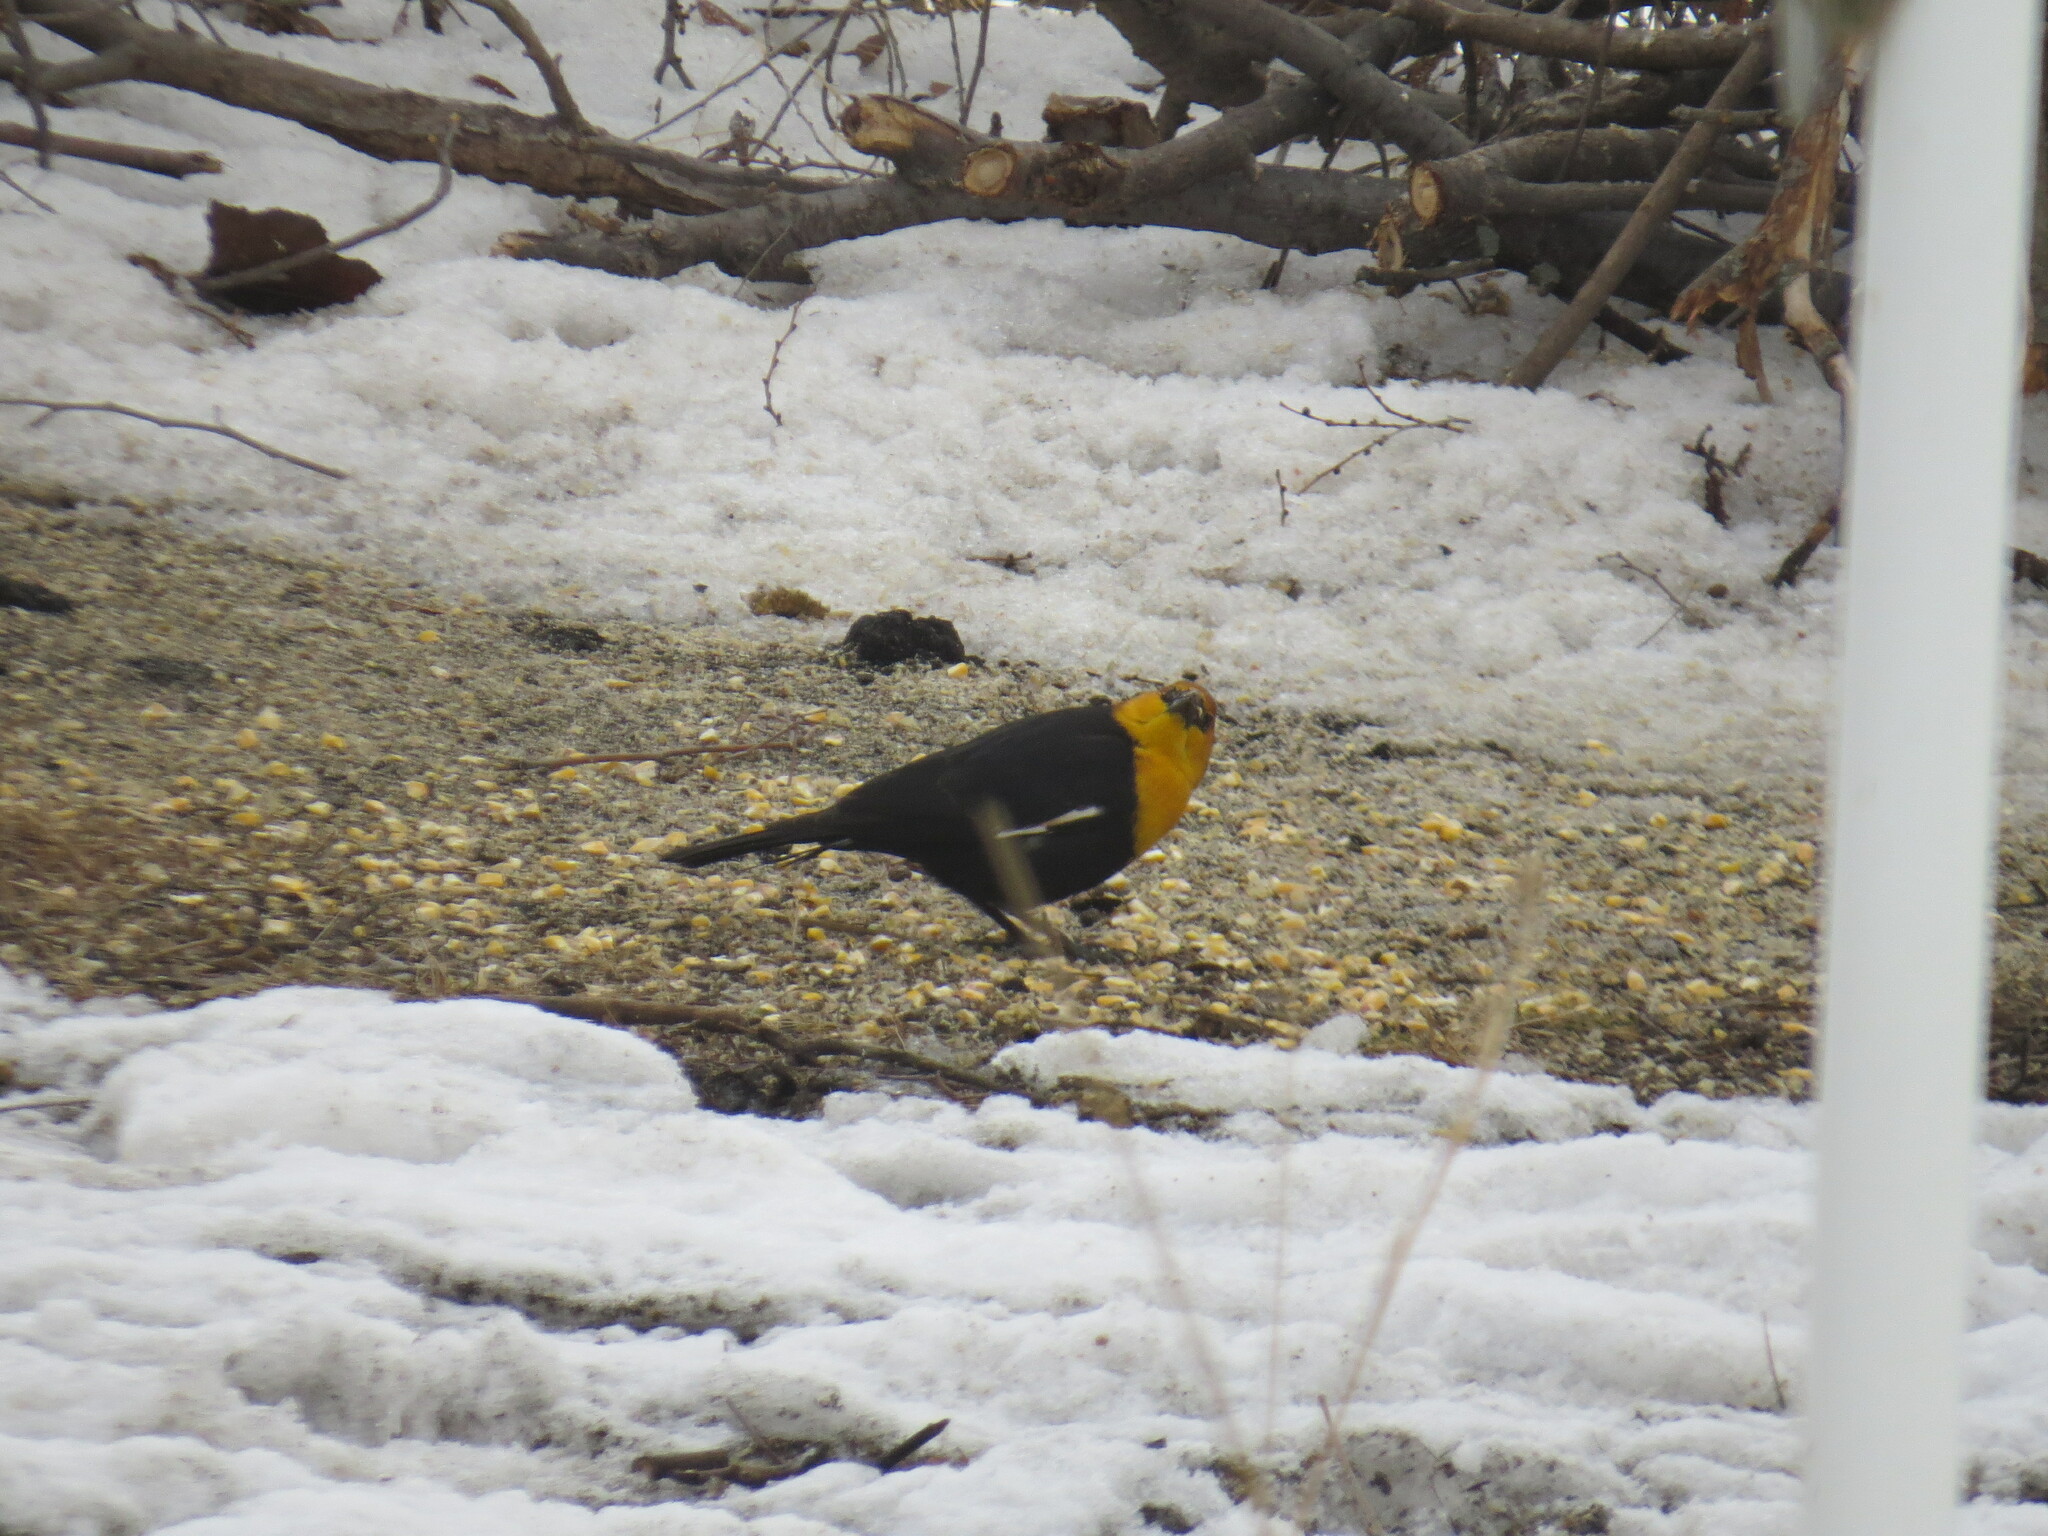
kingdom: Animalia
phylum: Chordata
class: Aves
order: Passeriformes
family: Icteridae
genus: Xanthocephalus
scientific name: Xanthocephalus xanthocephalus
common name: Yellow-headed blackbird
